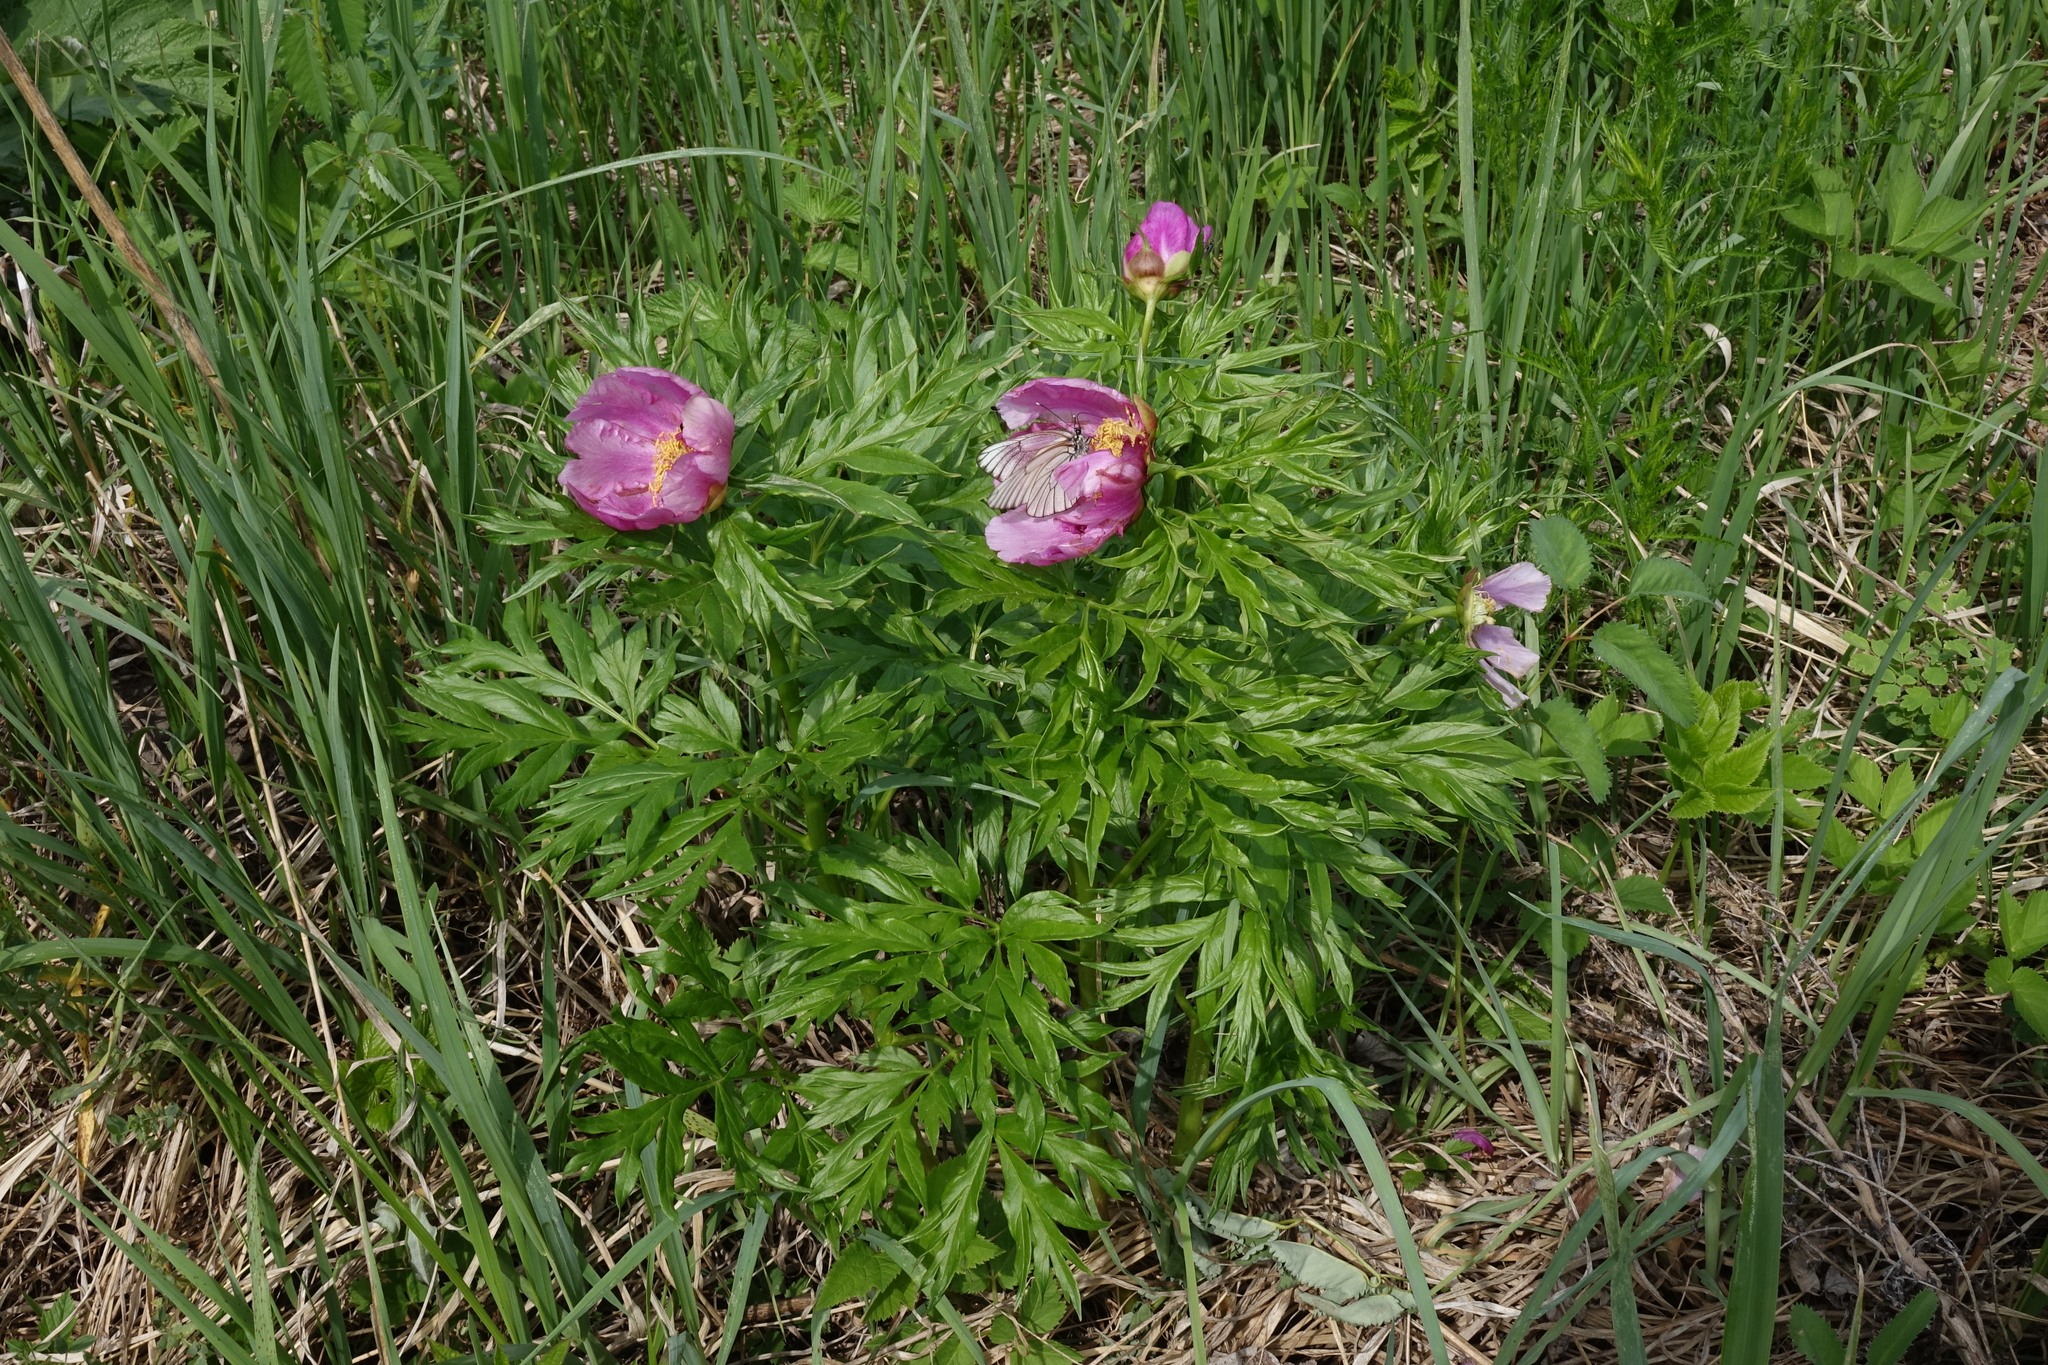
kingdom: Plantae
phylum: Tracheophyta
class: Magnoliopsida
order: Saxifragales
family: Paeoniaceae
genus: Paeonia
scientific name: Paeonia anomala
